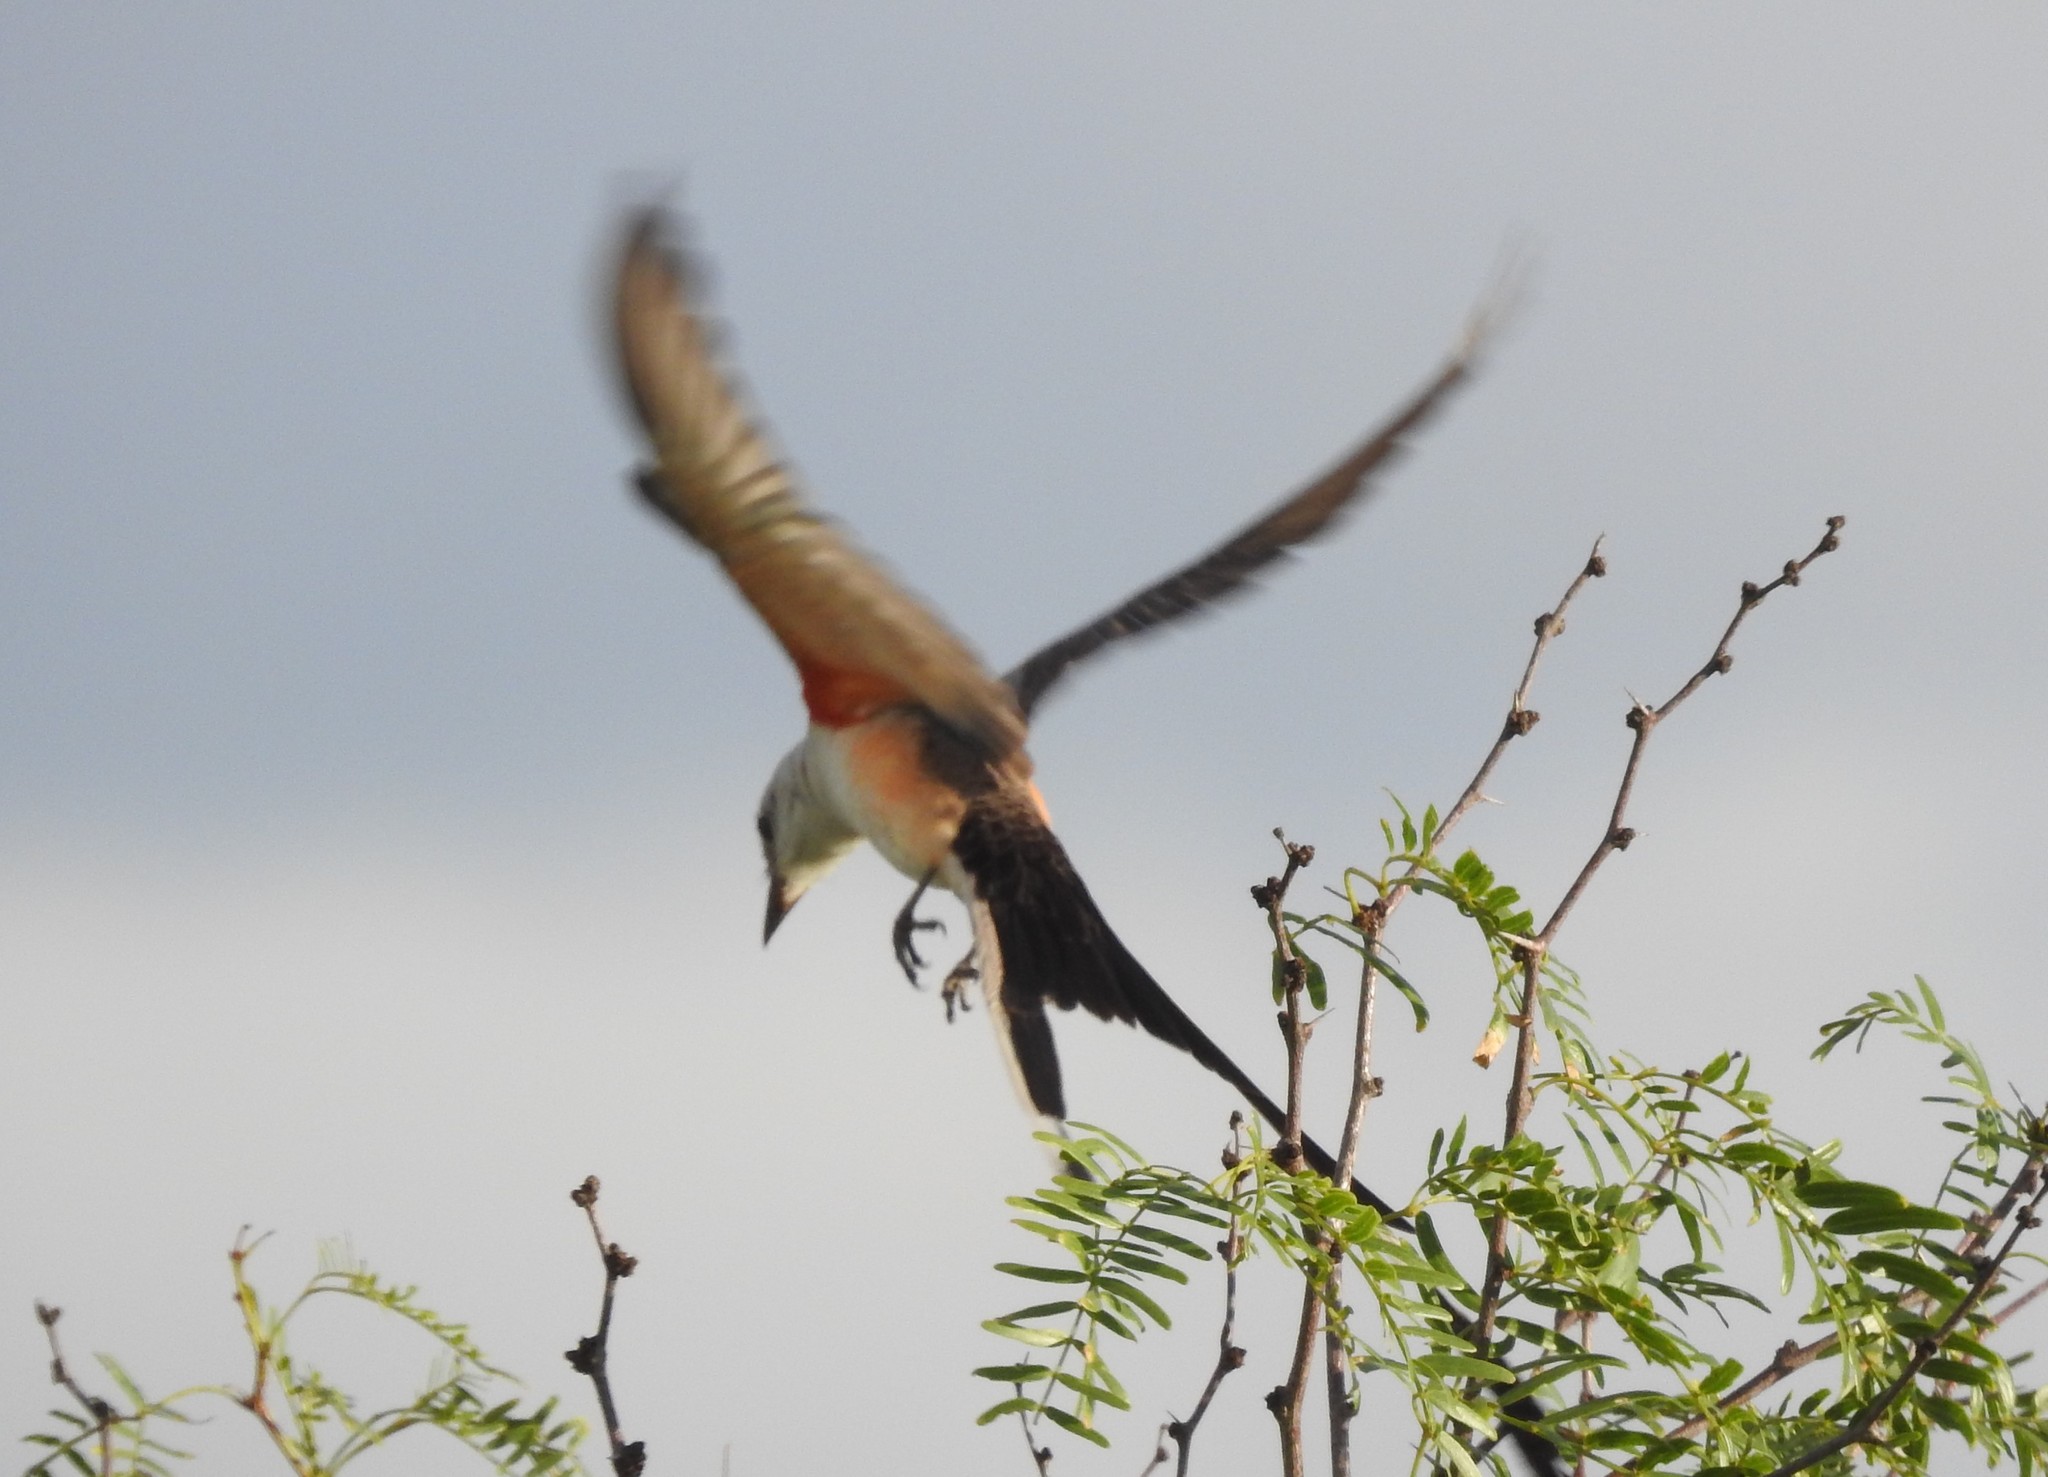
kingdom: Animalia
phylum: Chordata
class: Aves
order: Passeriformes
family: Tyrannidae
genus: Tyrannus
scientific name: Tyrannus forficatus
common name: Scissor-tailed flycatcher
